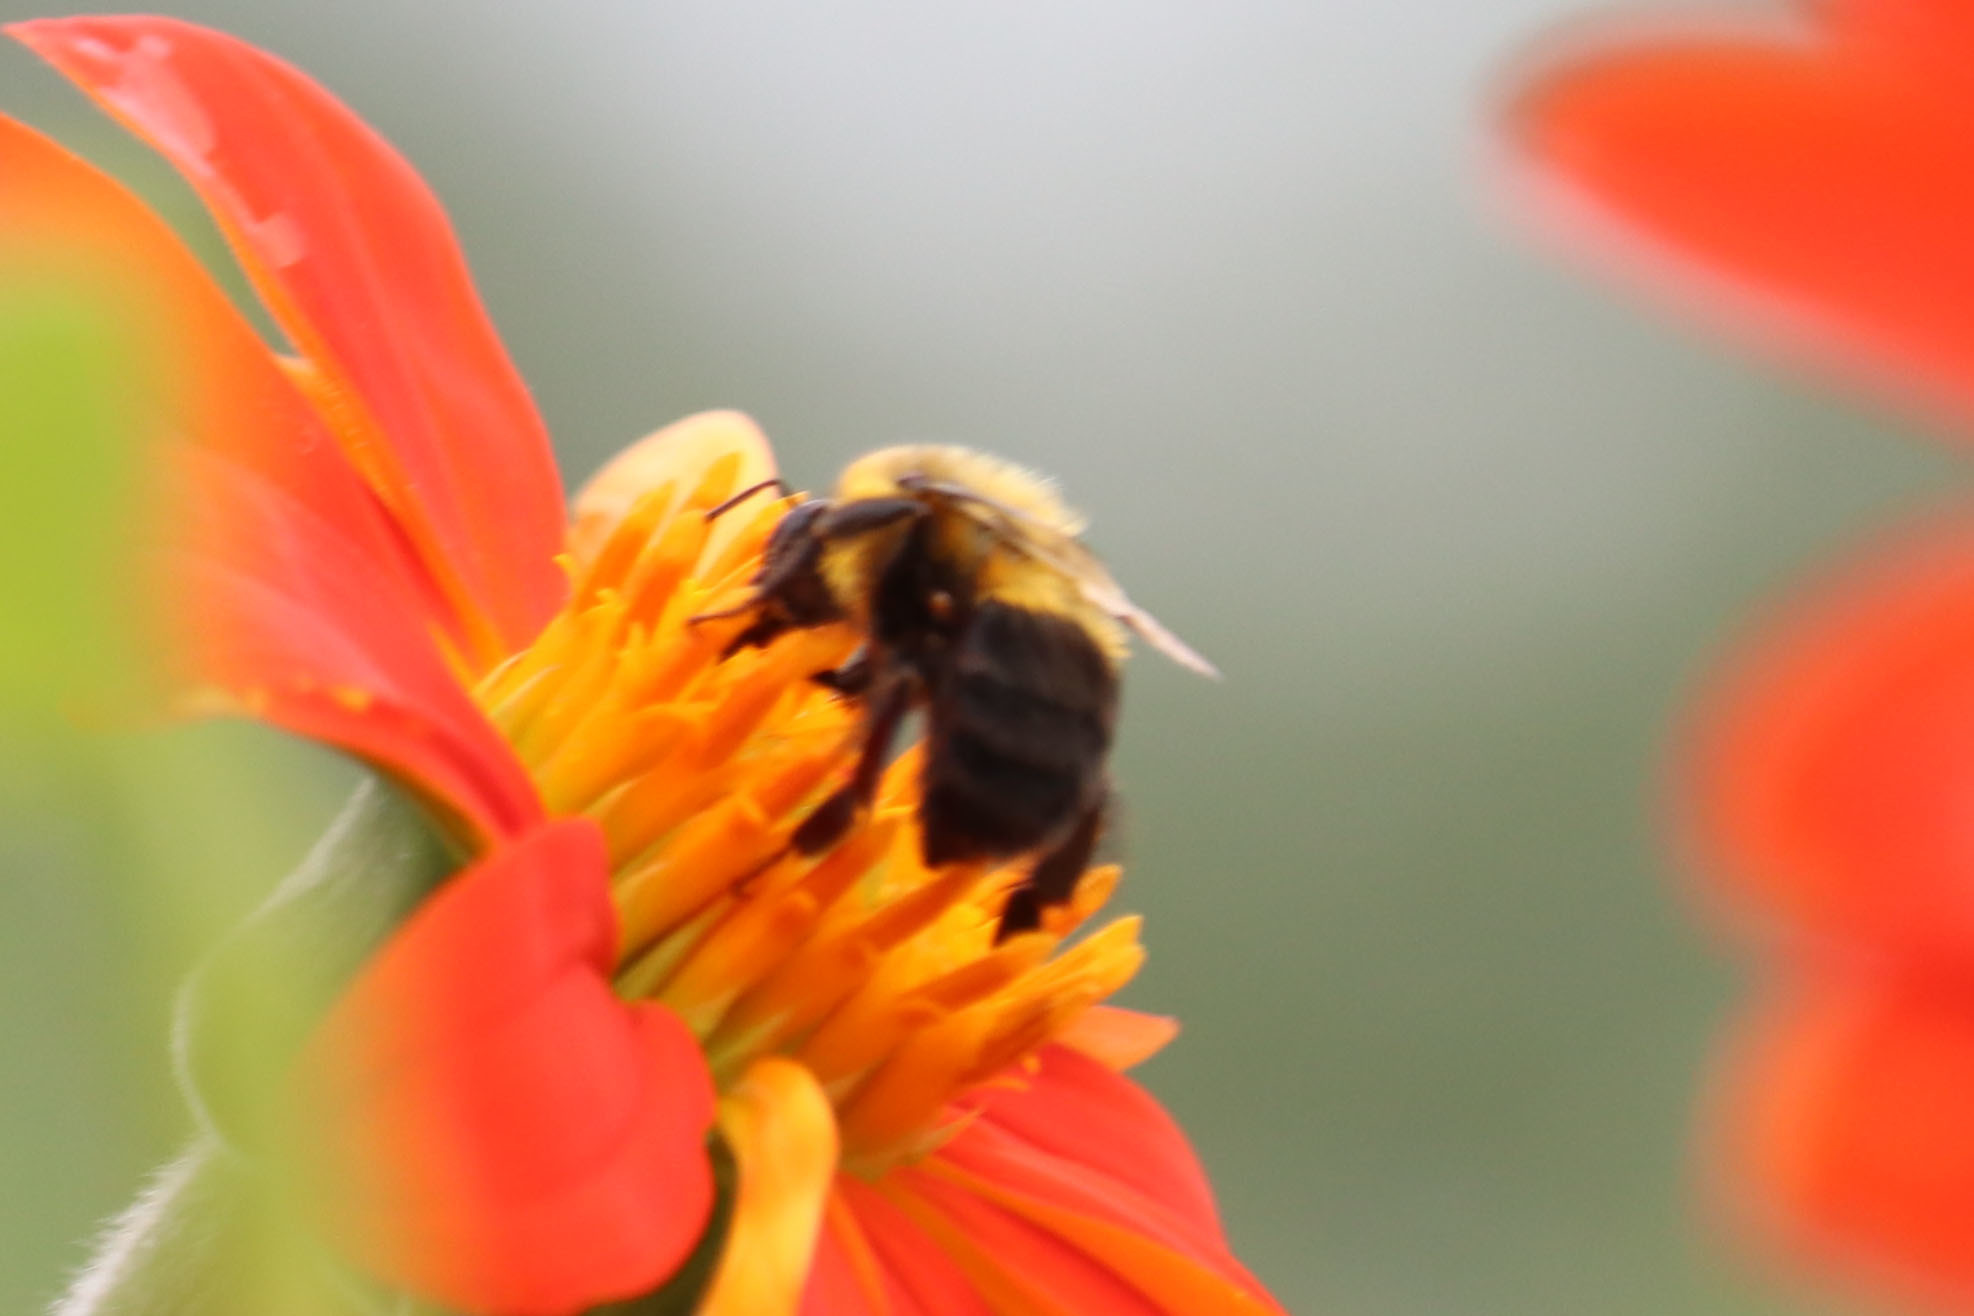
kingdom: Animalia
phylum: Arthropoda
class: Insecta
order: Hymenoptera
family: Apidae
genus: Bombus
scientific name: Bombus impatiens
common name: Common eastern bumble bee
